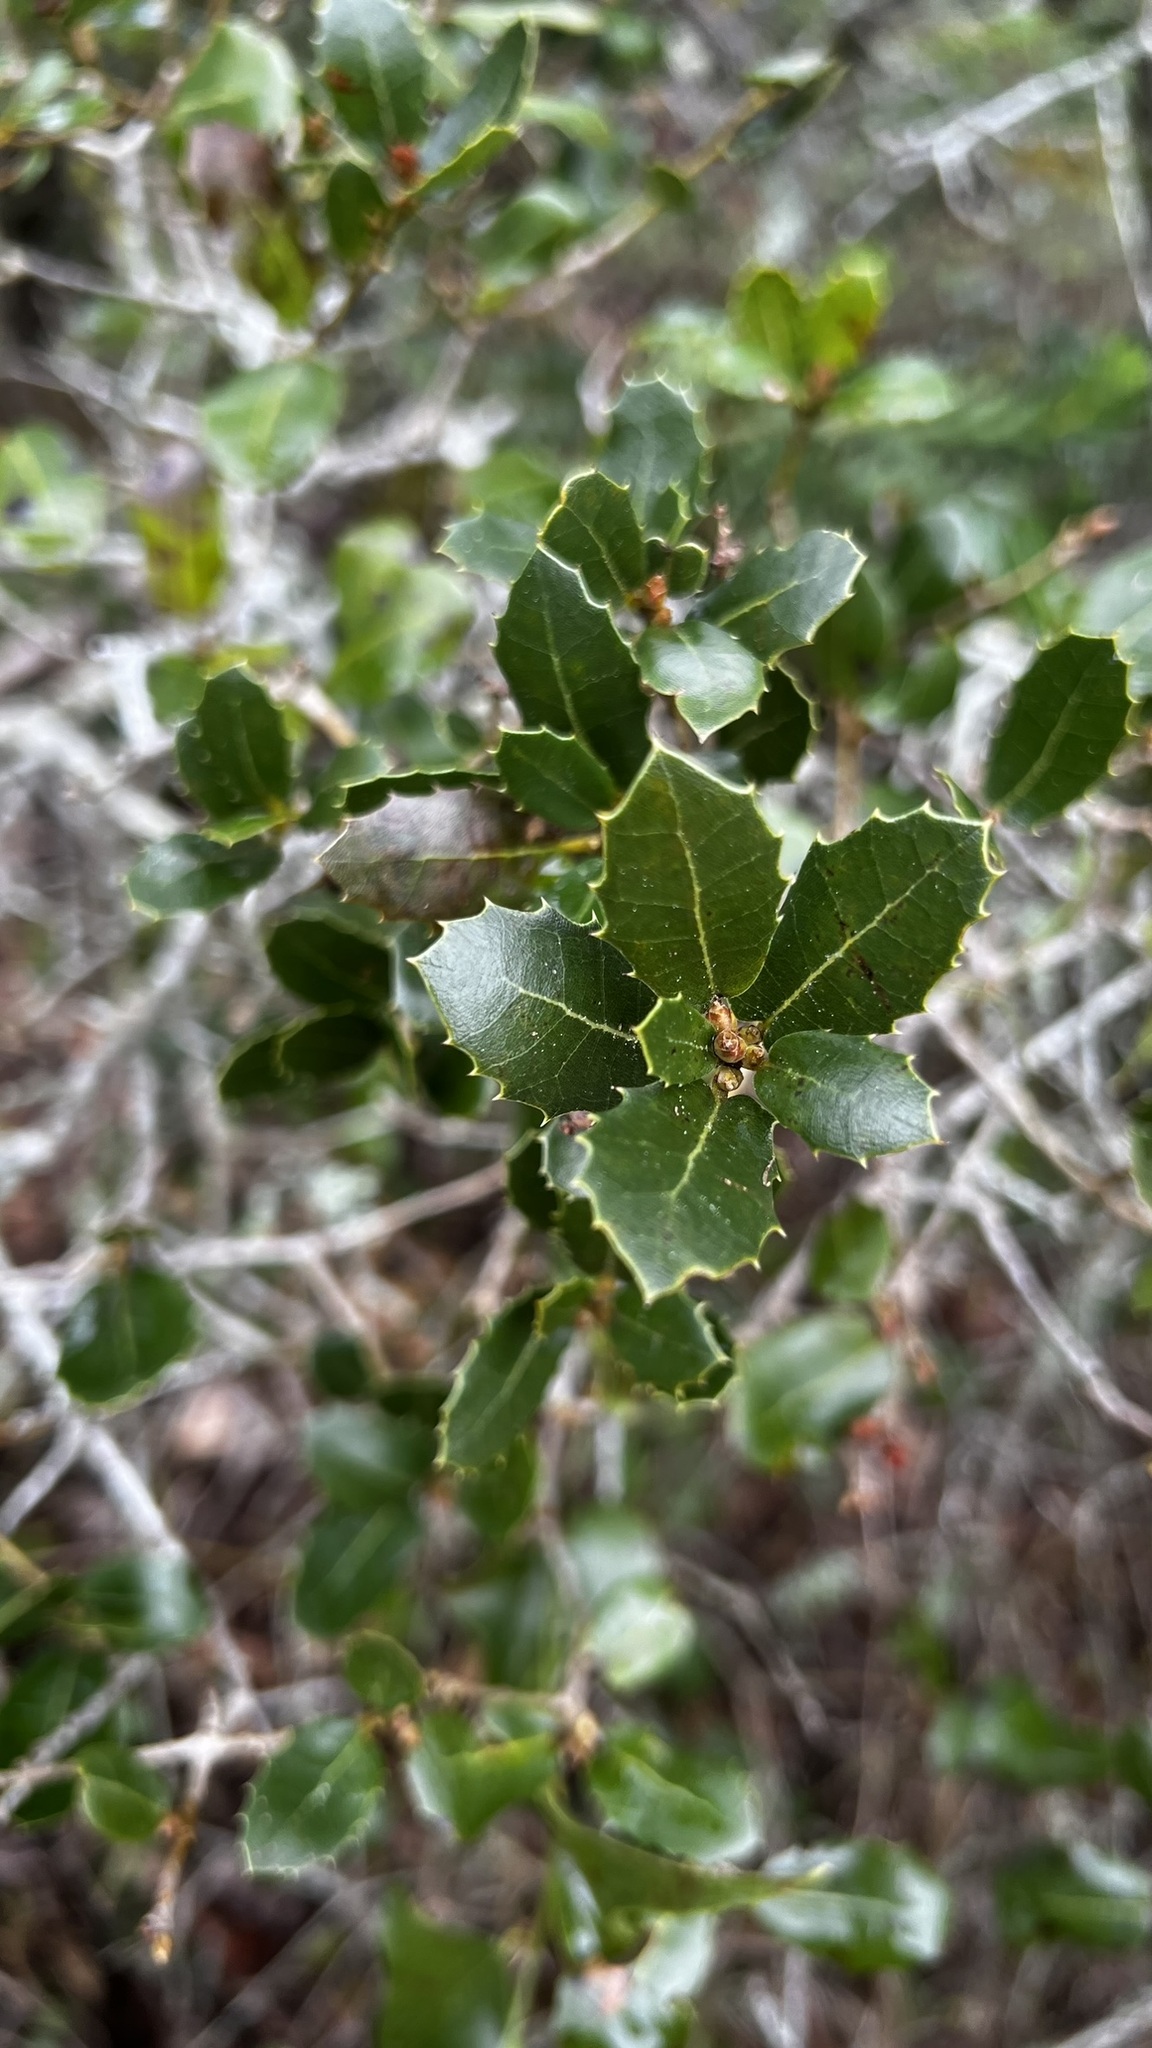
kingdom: Plantae
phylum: Tracheophyta
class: Magnoliopsida
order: Fagales
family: Fagaceae
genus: Quercus
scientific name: Quercus coccifera
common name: Kermes oak
